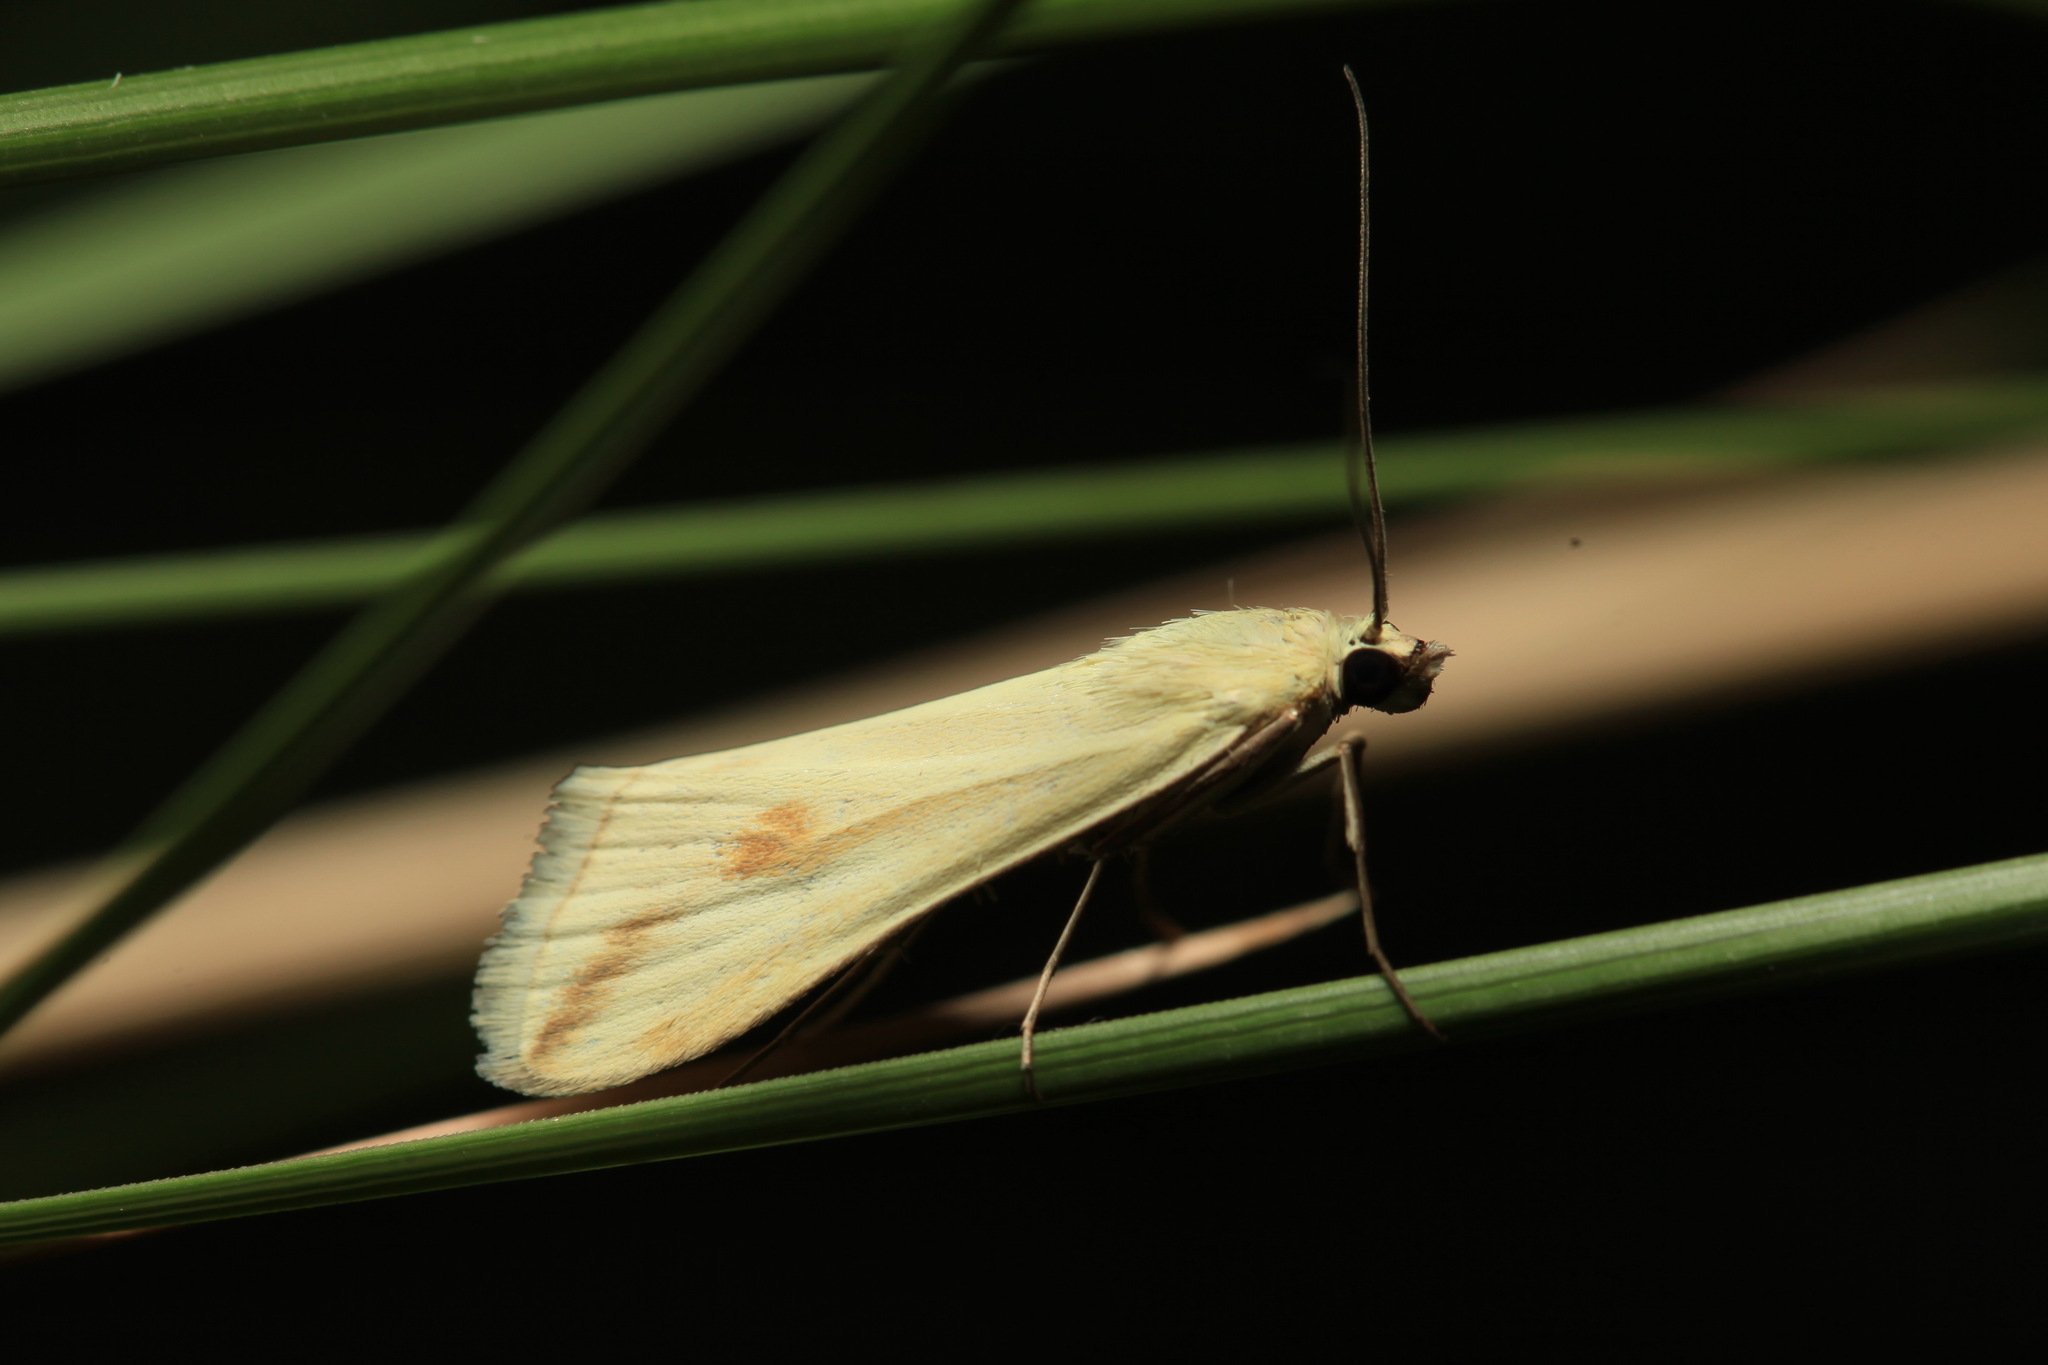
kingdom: Animalia
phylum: Arthropoda
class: Insecta
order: Lepidoptera
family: Crambidae
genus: Loxostege
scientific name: Loxostege deliblatica
